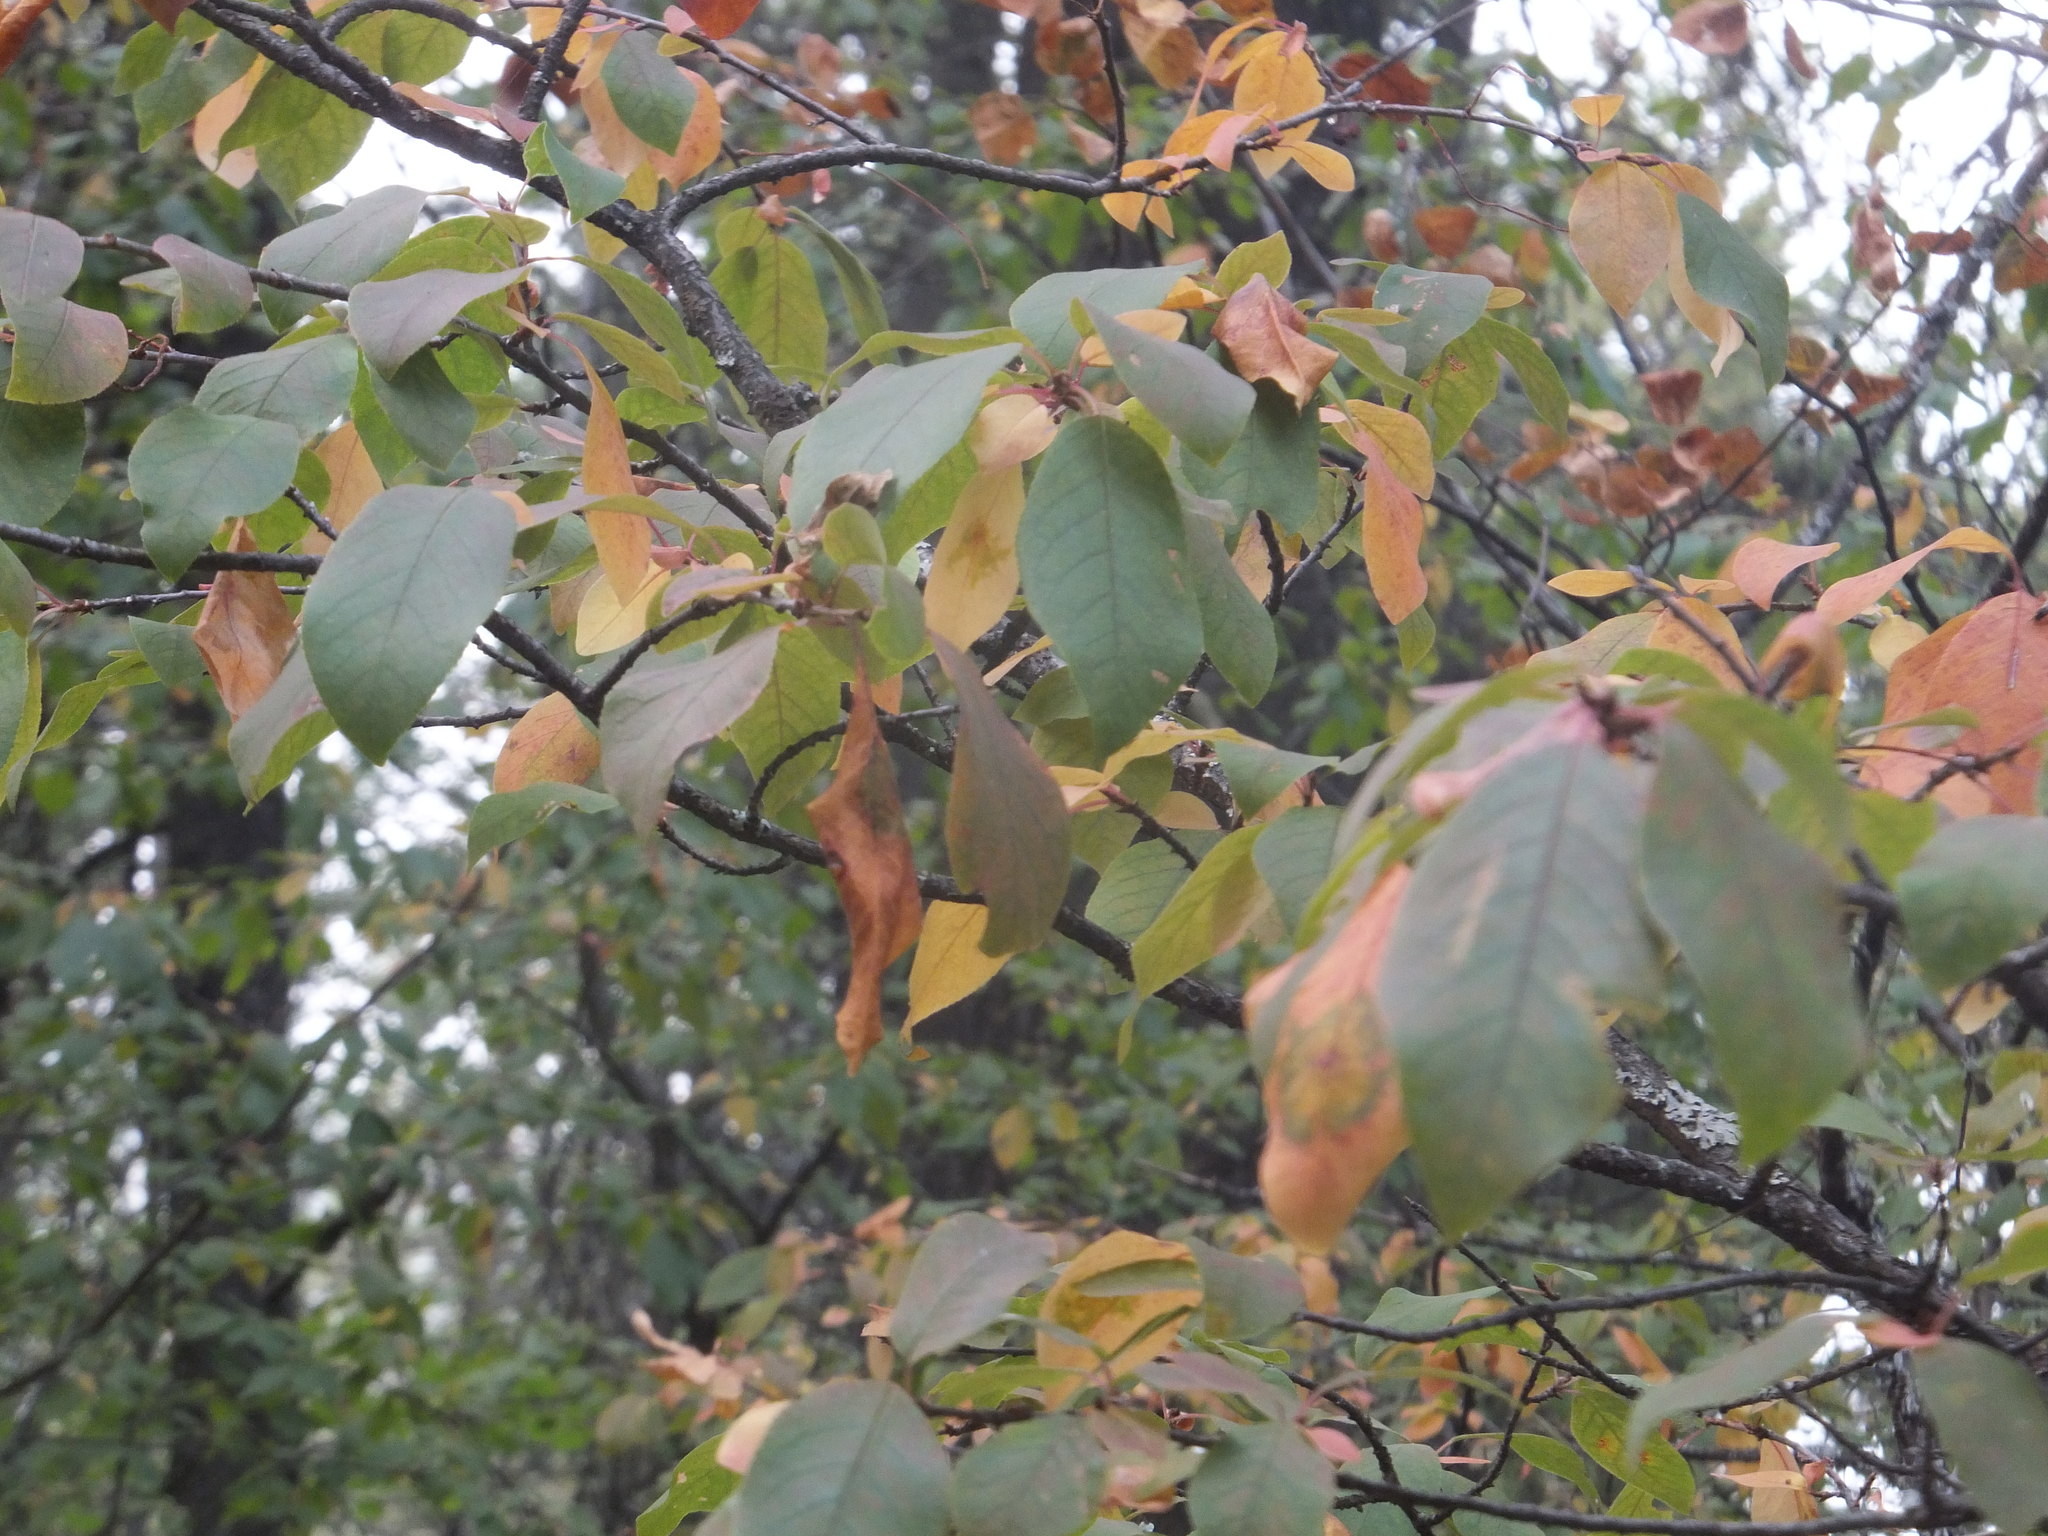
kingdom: Plantae
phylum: Tracheophyta
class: Magnoliopsida
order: Rosales
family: Rosaceae
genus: Prunus
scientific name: Prunus emarginata
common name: Bitter cherry
